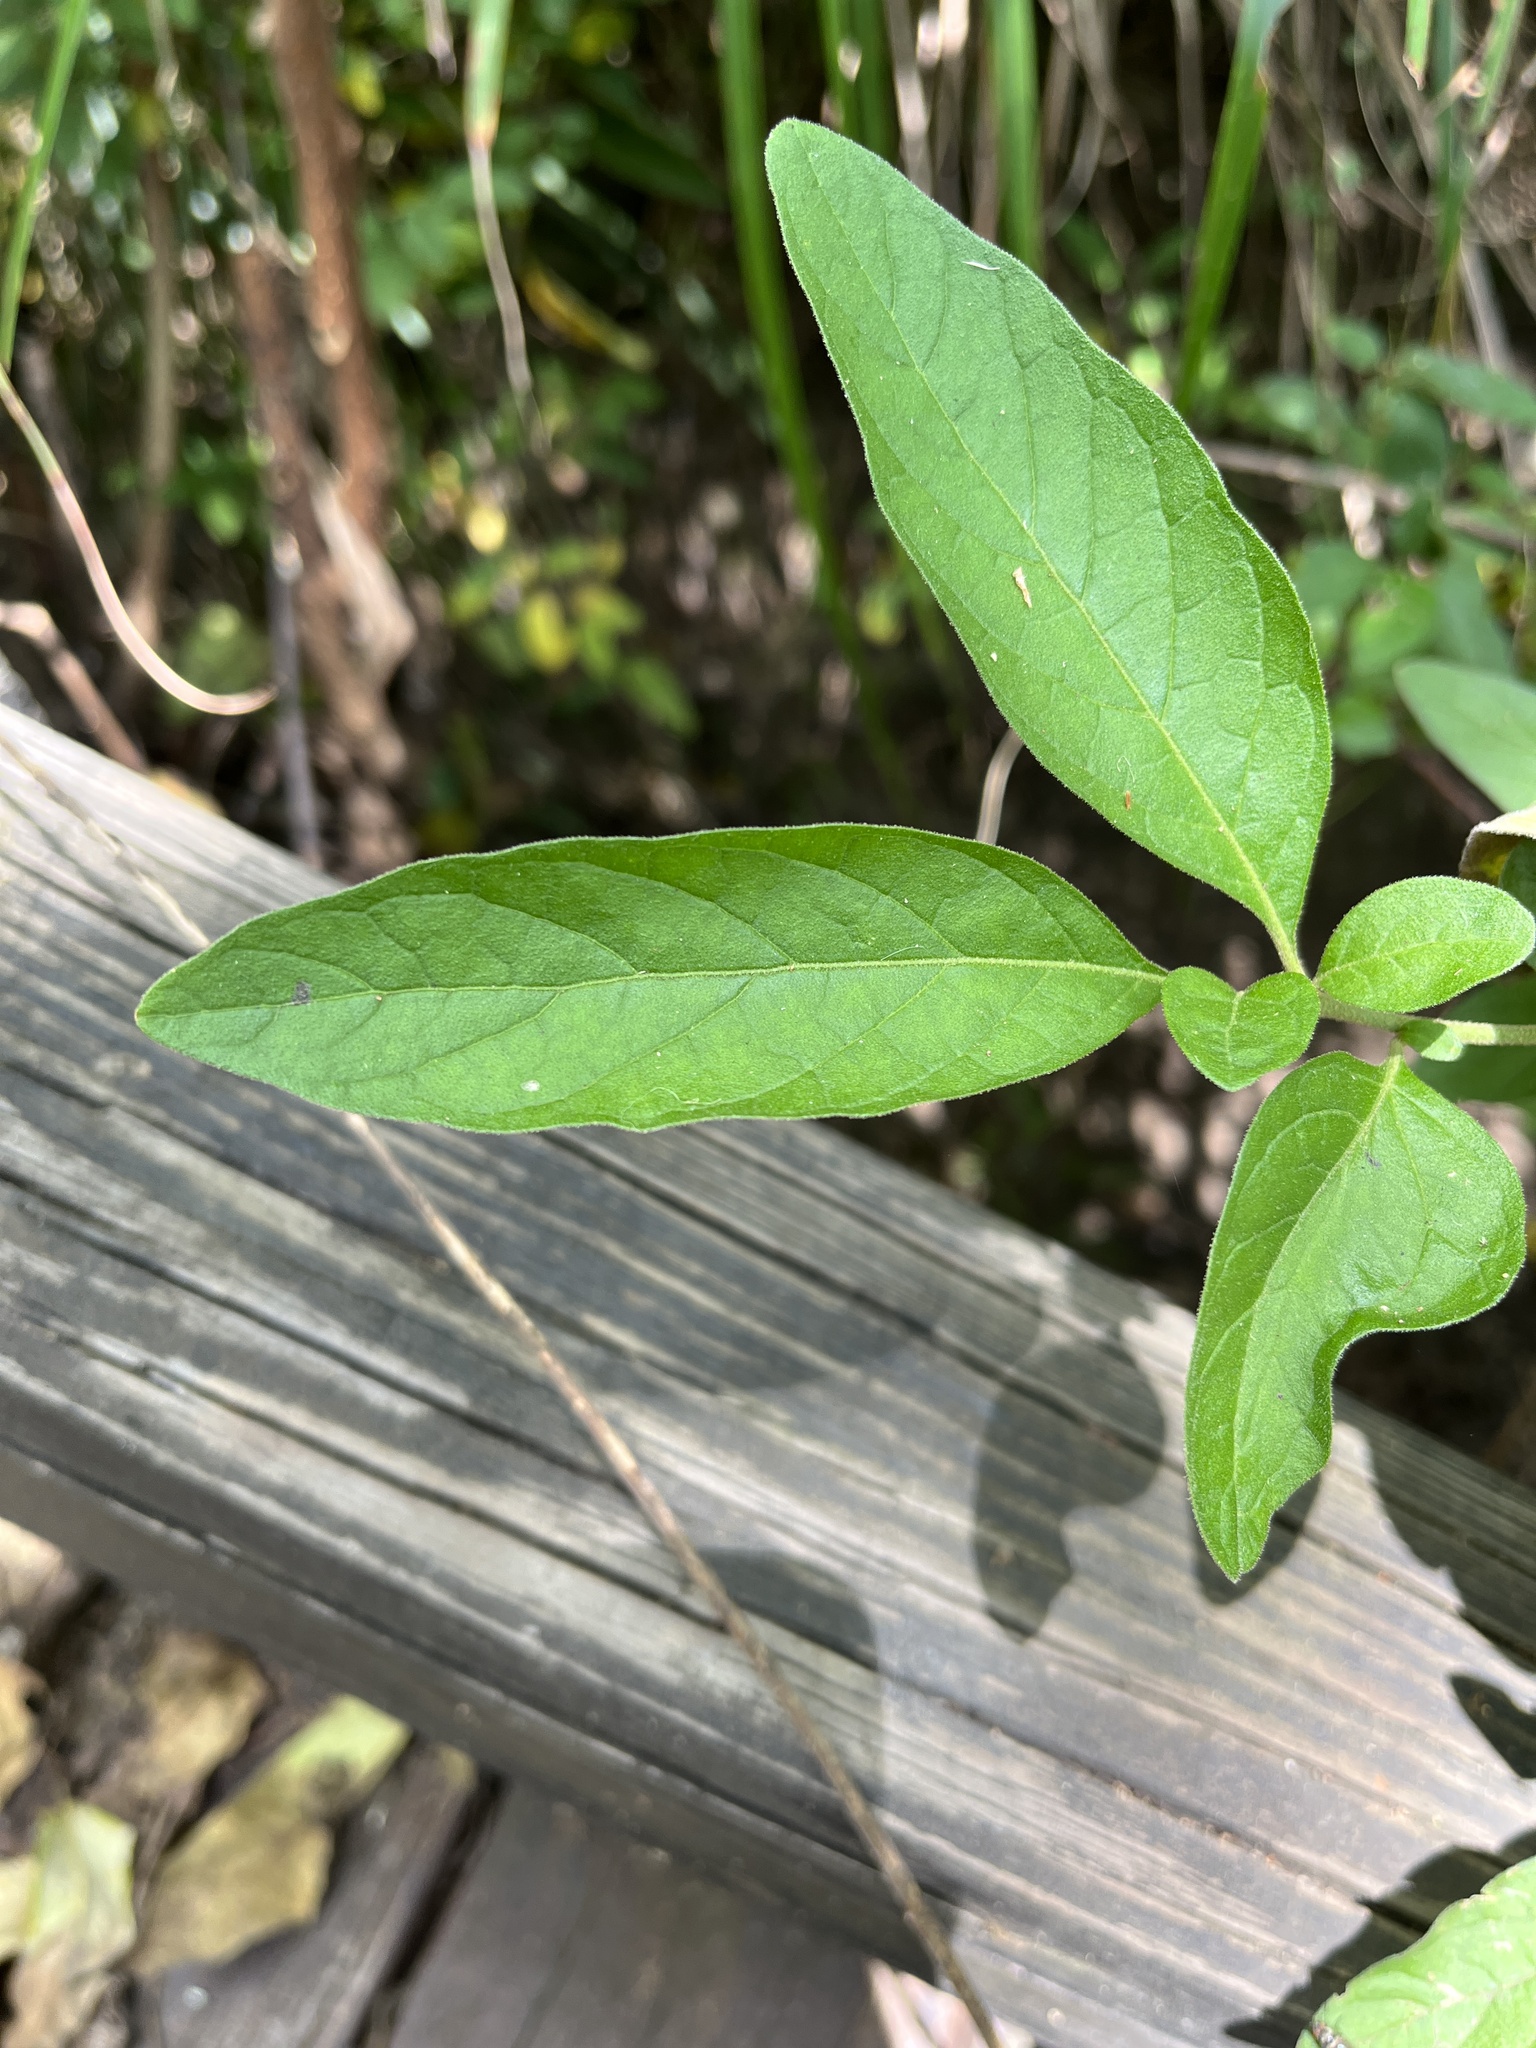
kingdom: Plantae
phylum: Tracheophyta
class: Magnoliopsida
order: Solanales
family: Solanaceae
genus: Solanum
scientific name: Solanum pseudocapsicum
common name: Jerusalem cherry
